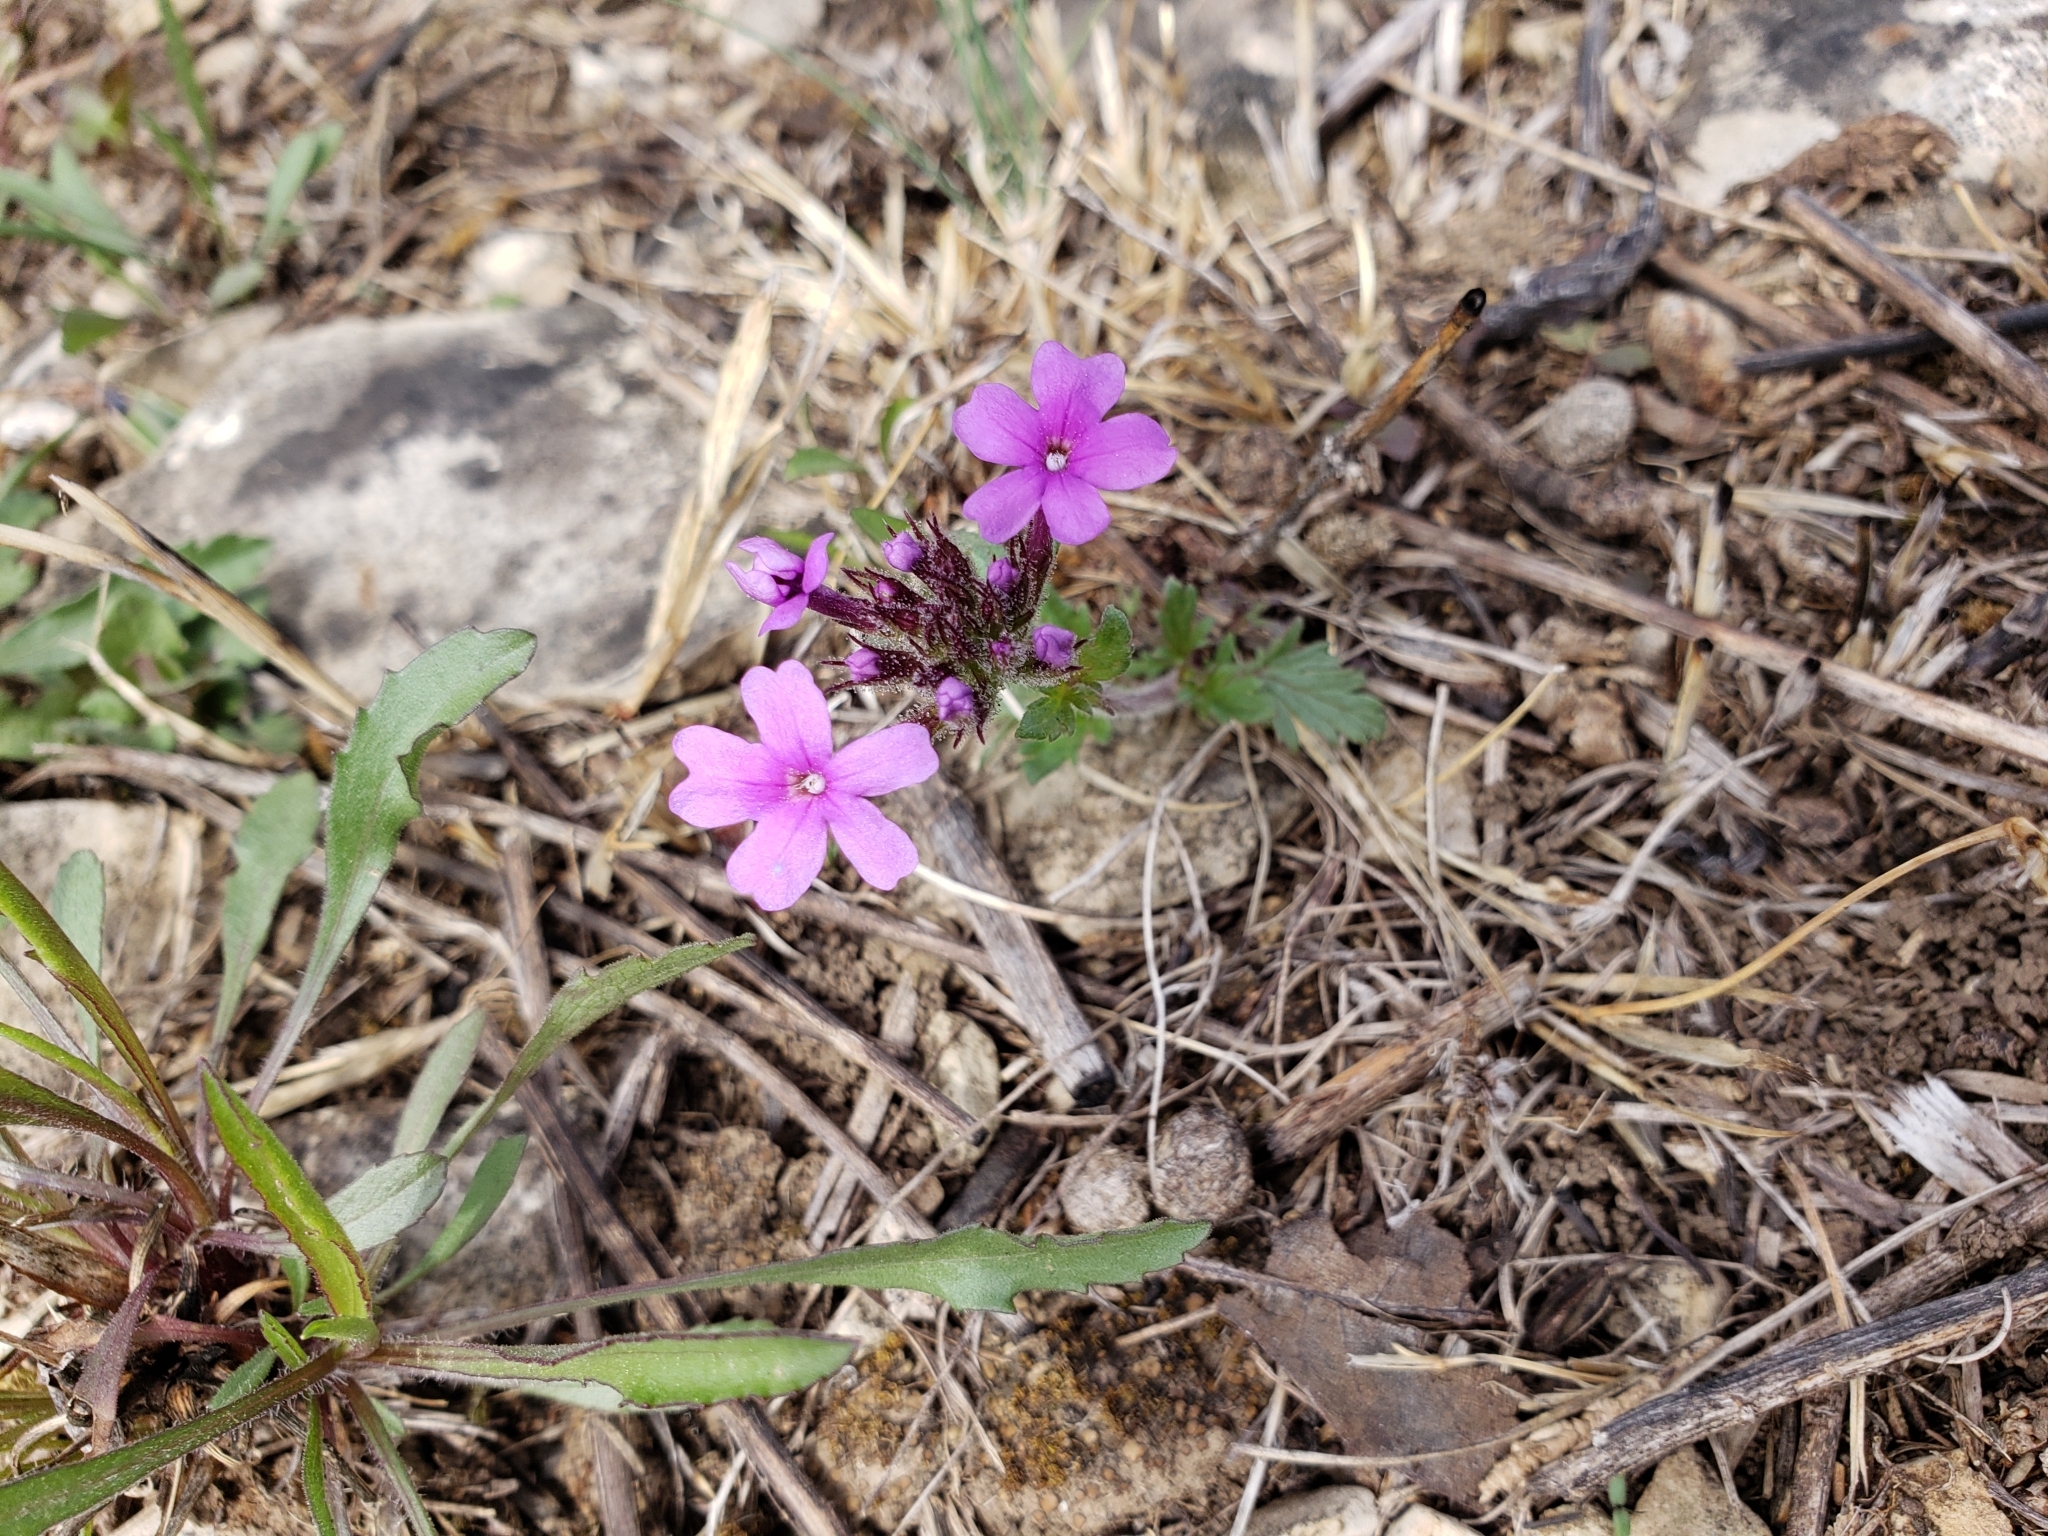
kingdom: Plantae
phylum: Tracheophyta
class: Magnoliopsida
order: Lamiales
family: Verbenaceae
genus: Verbena
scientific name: Verbena canadensis
